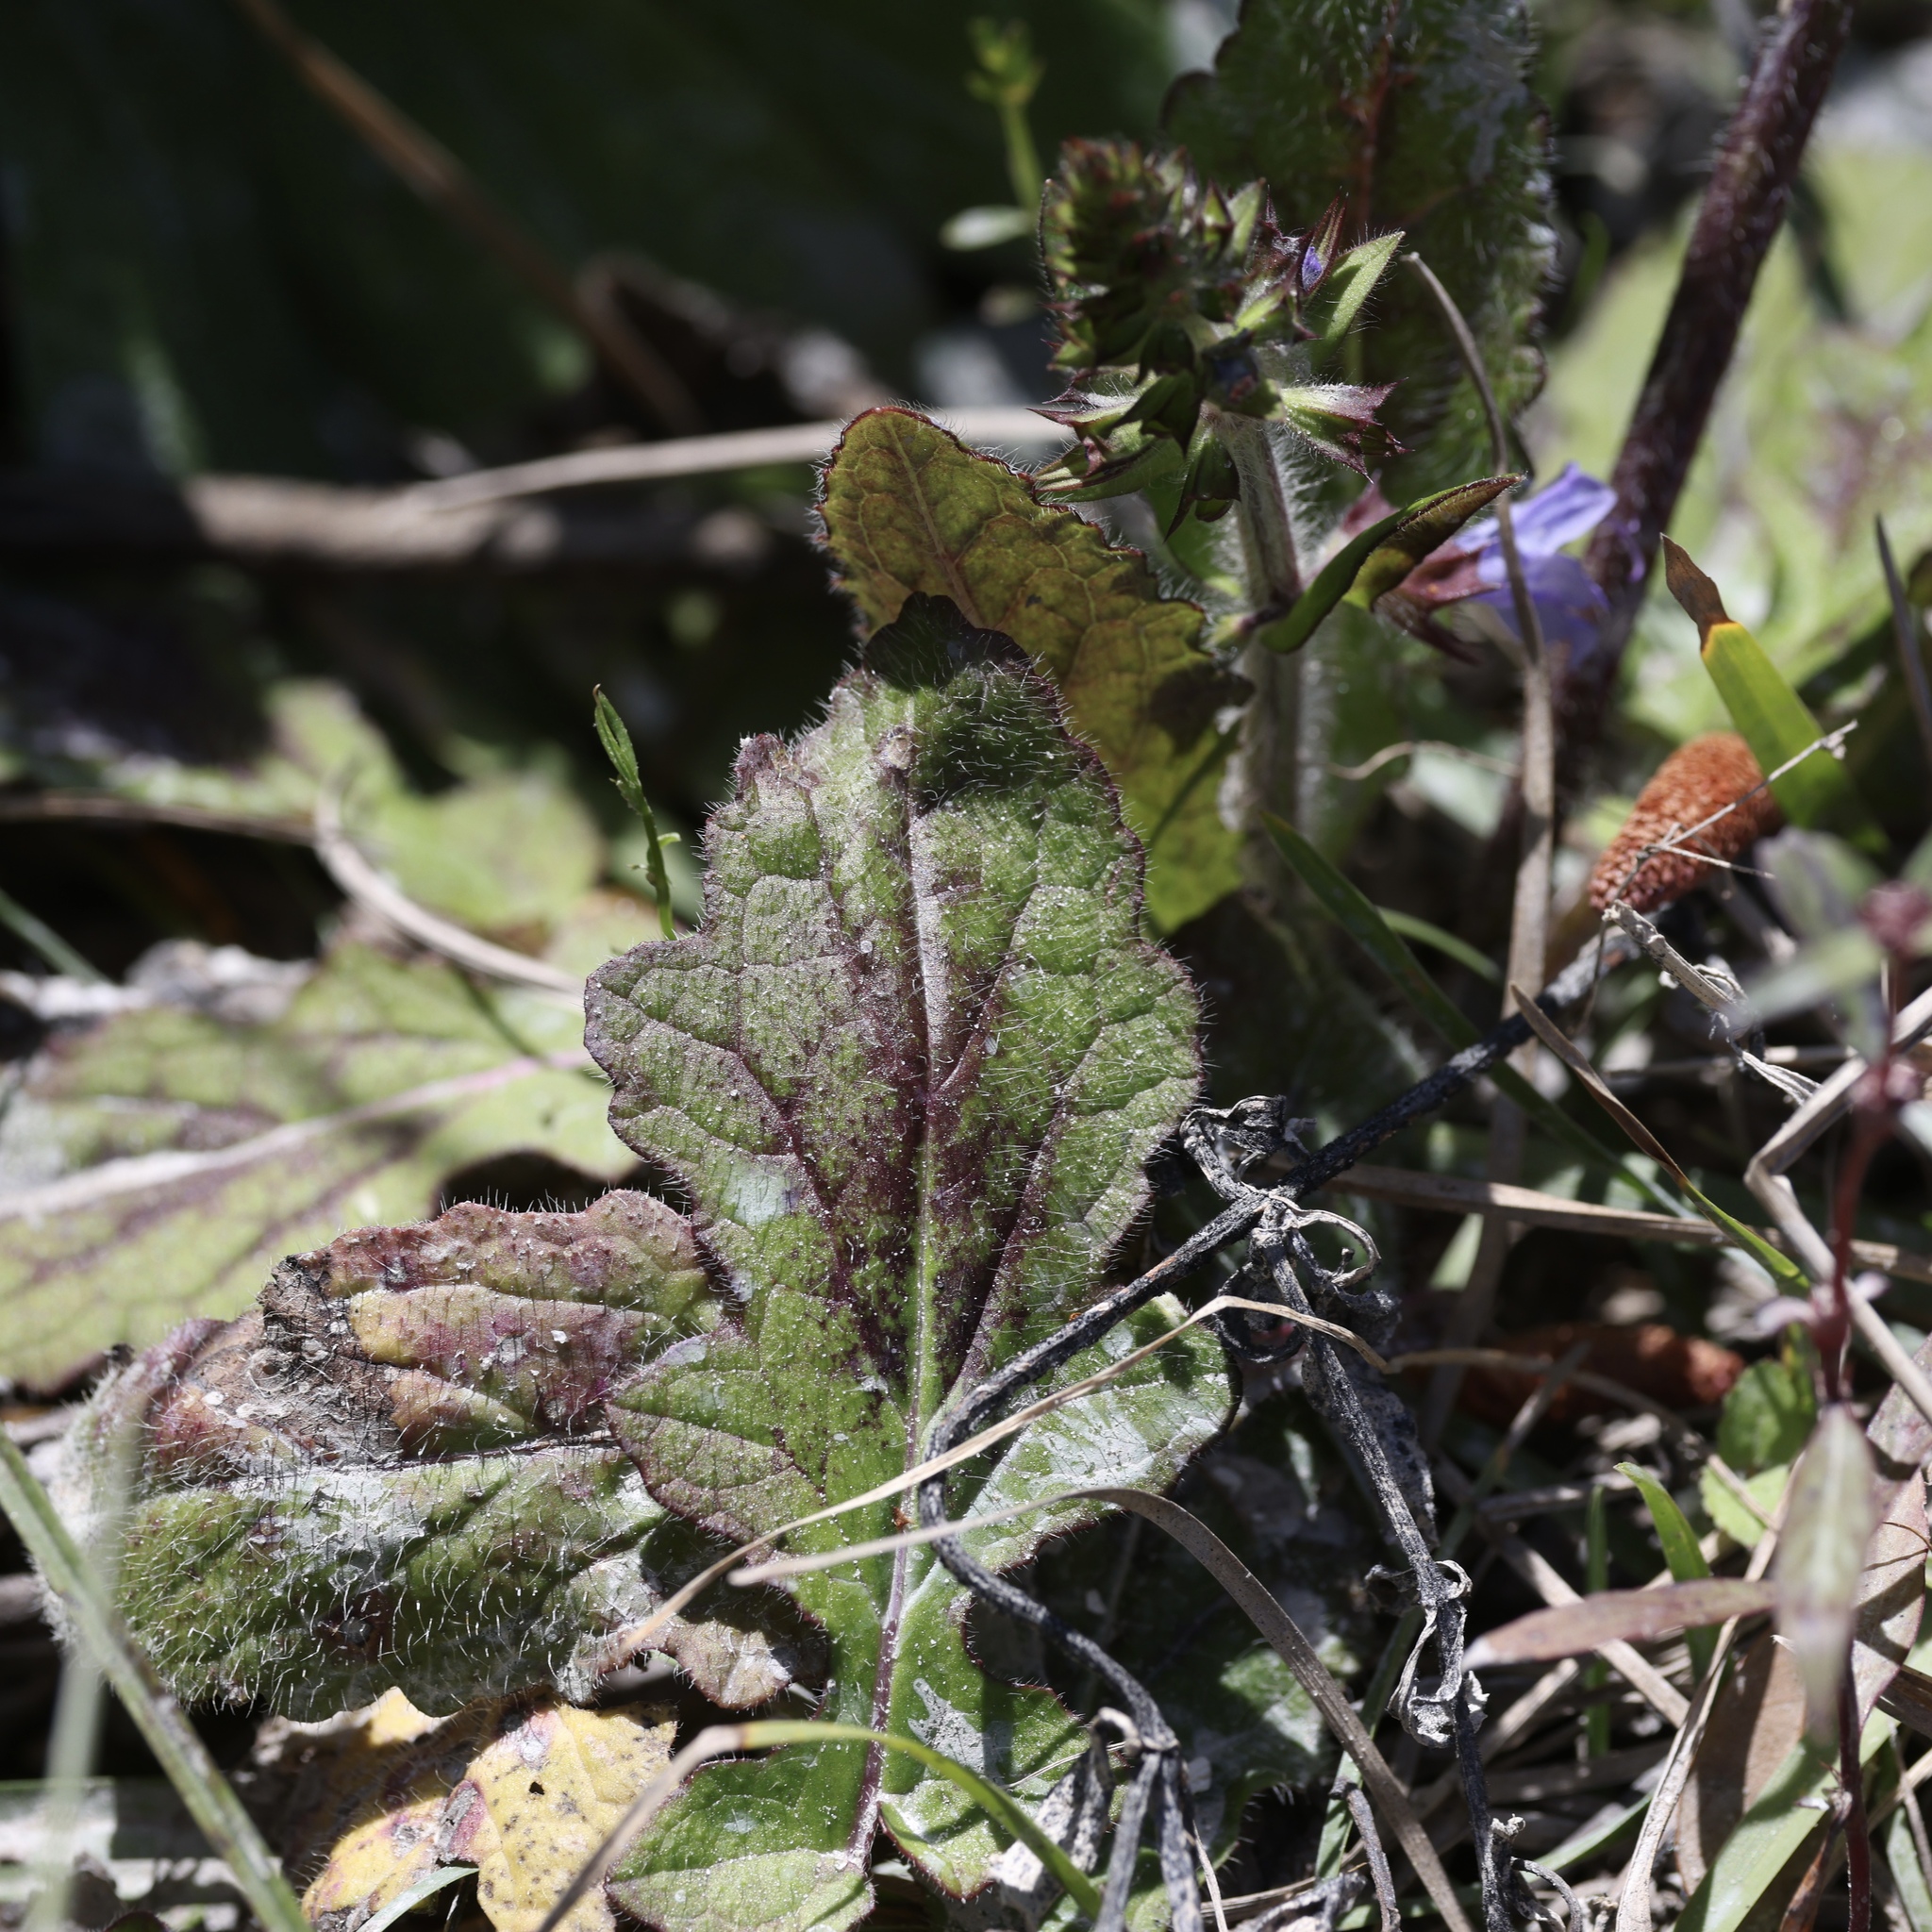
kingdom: Plantae
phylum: Tracheophyta
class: Magnoliopsida
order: Lamiales
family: Lamiaceae
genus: Salvia
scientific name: Salvia lyrata
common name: Cancerweed
